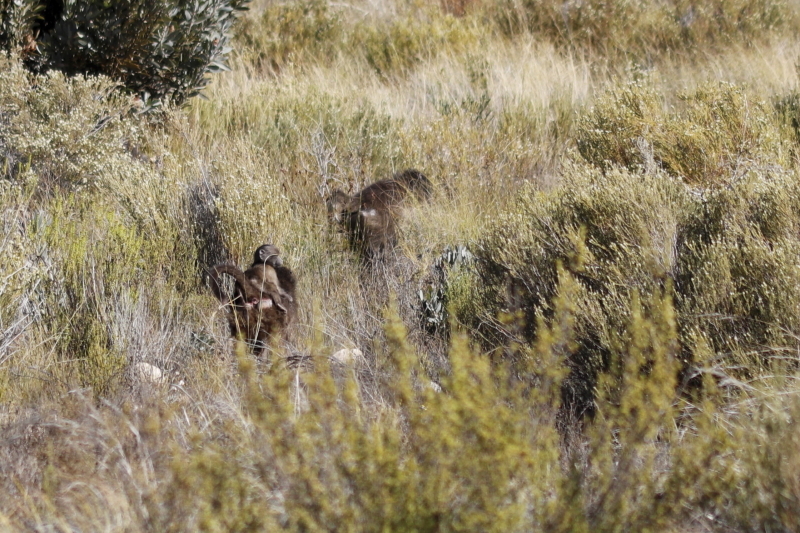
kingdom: Animalia
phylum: Chordata
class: Mammalia
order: Primates
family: Cercopithecidae
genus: Papio
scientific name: Papio ursinus
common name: Chacma baboon
